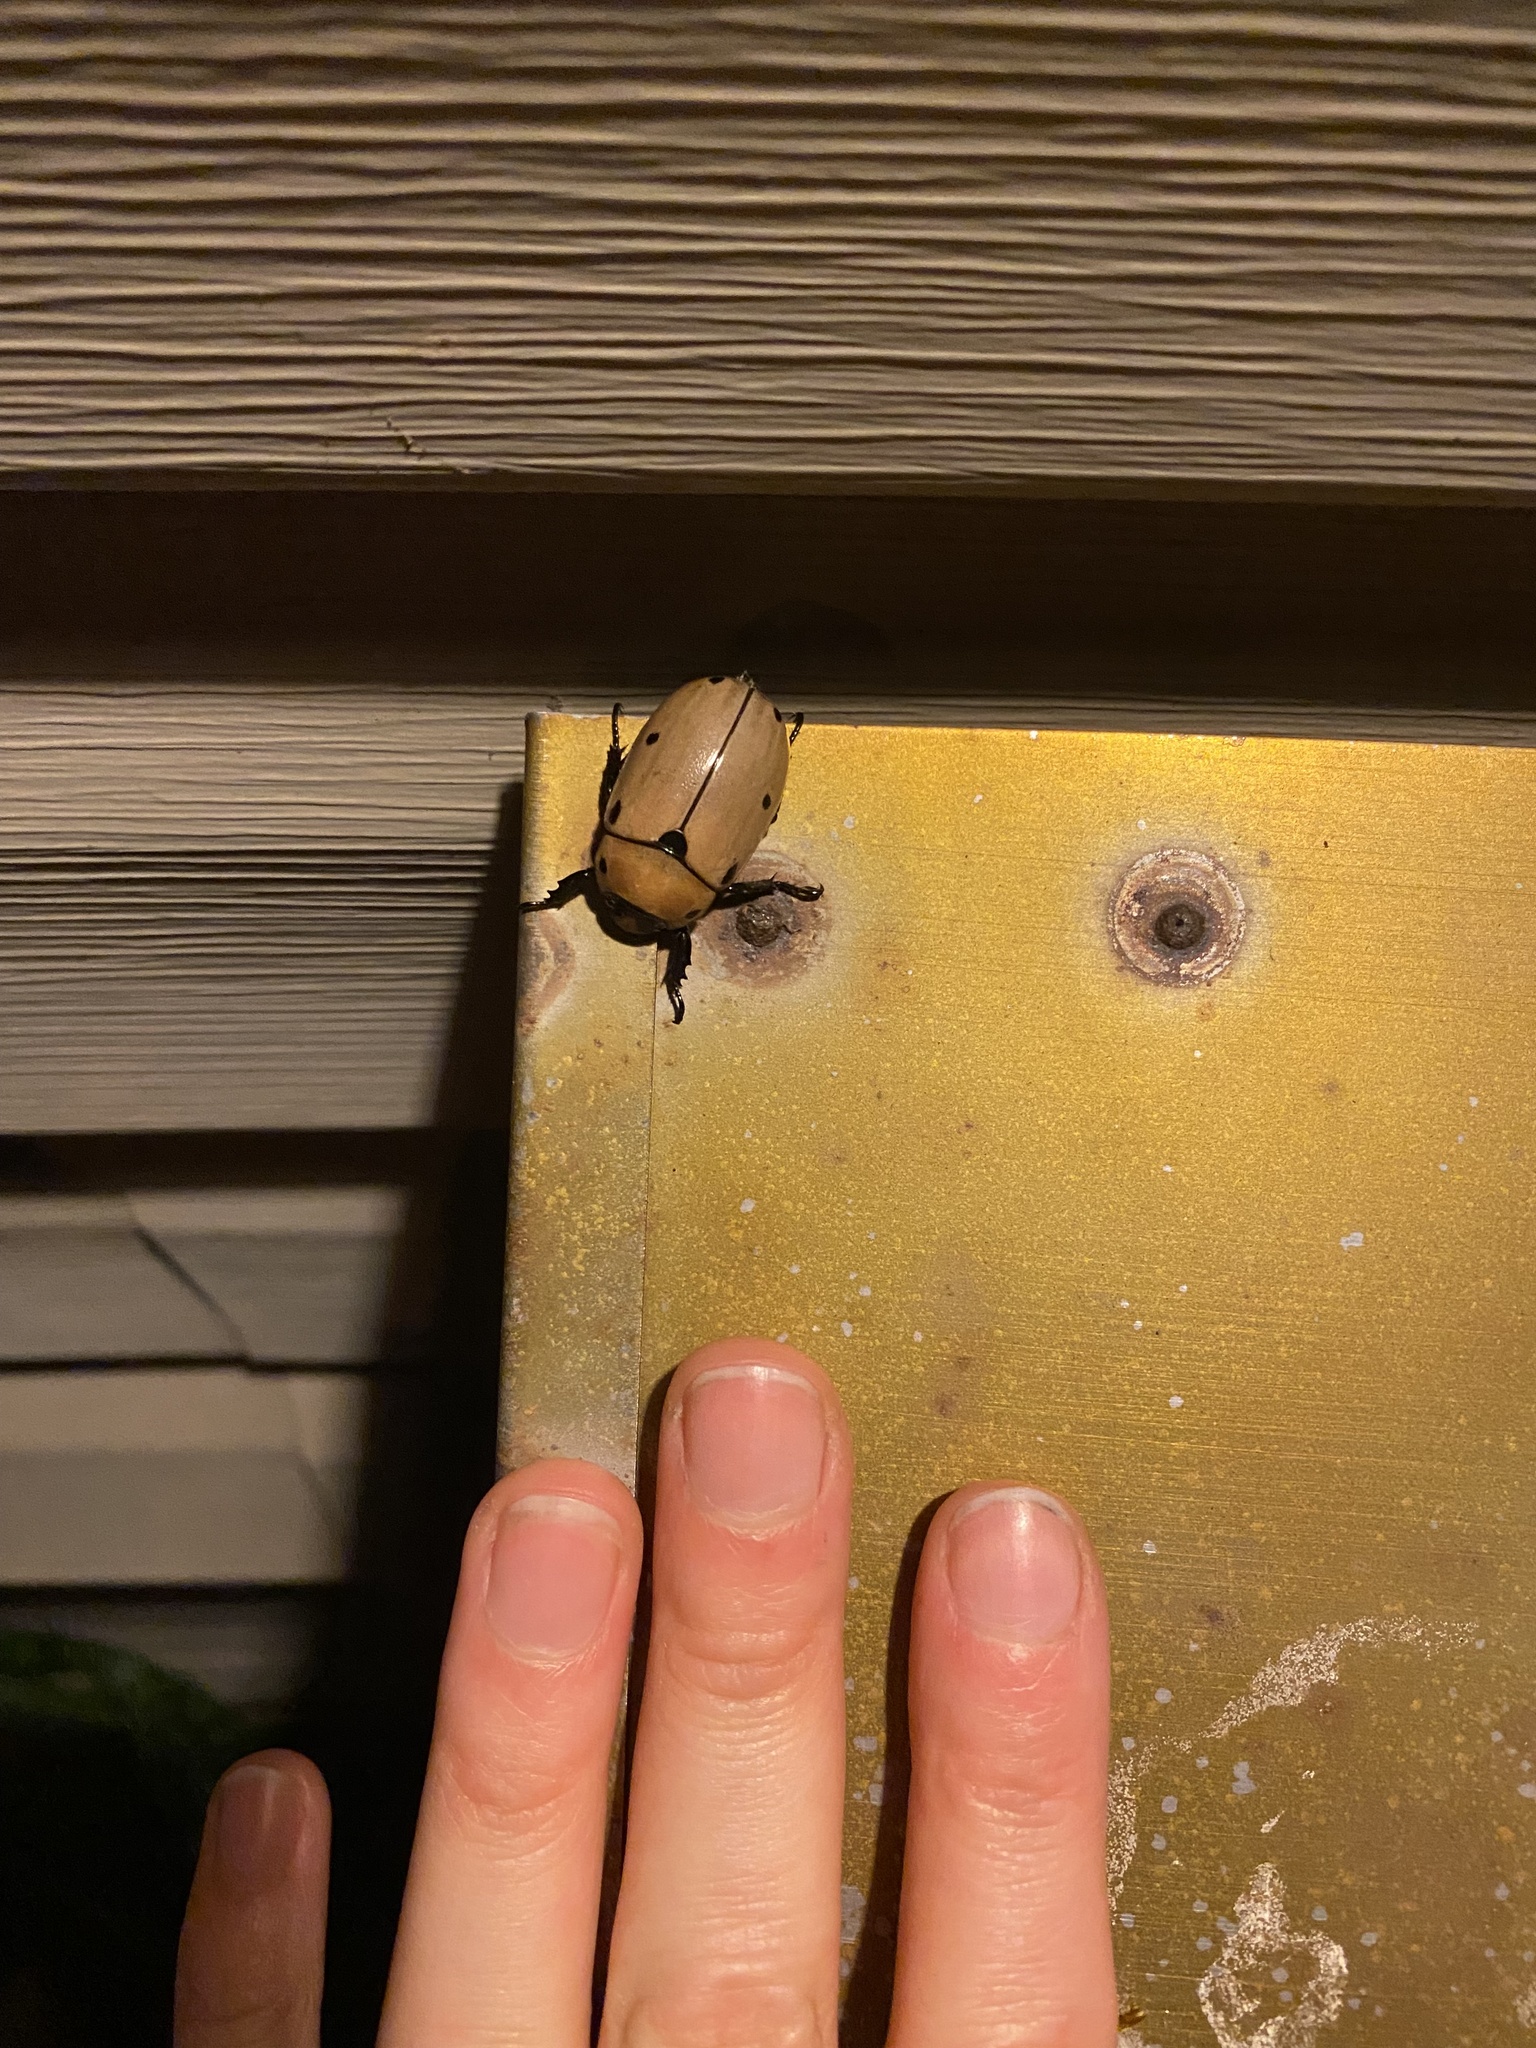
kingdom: Animalia
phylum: Arthropoda
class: Insecta
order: Coleoptera
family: Scarabaeidae
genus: Pelidnota
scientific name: Pelidnota punctata
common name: Grapevine beetle
